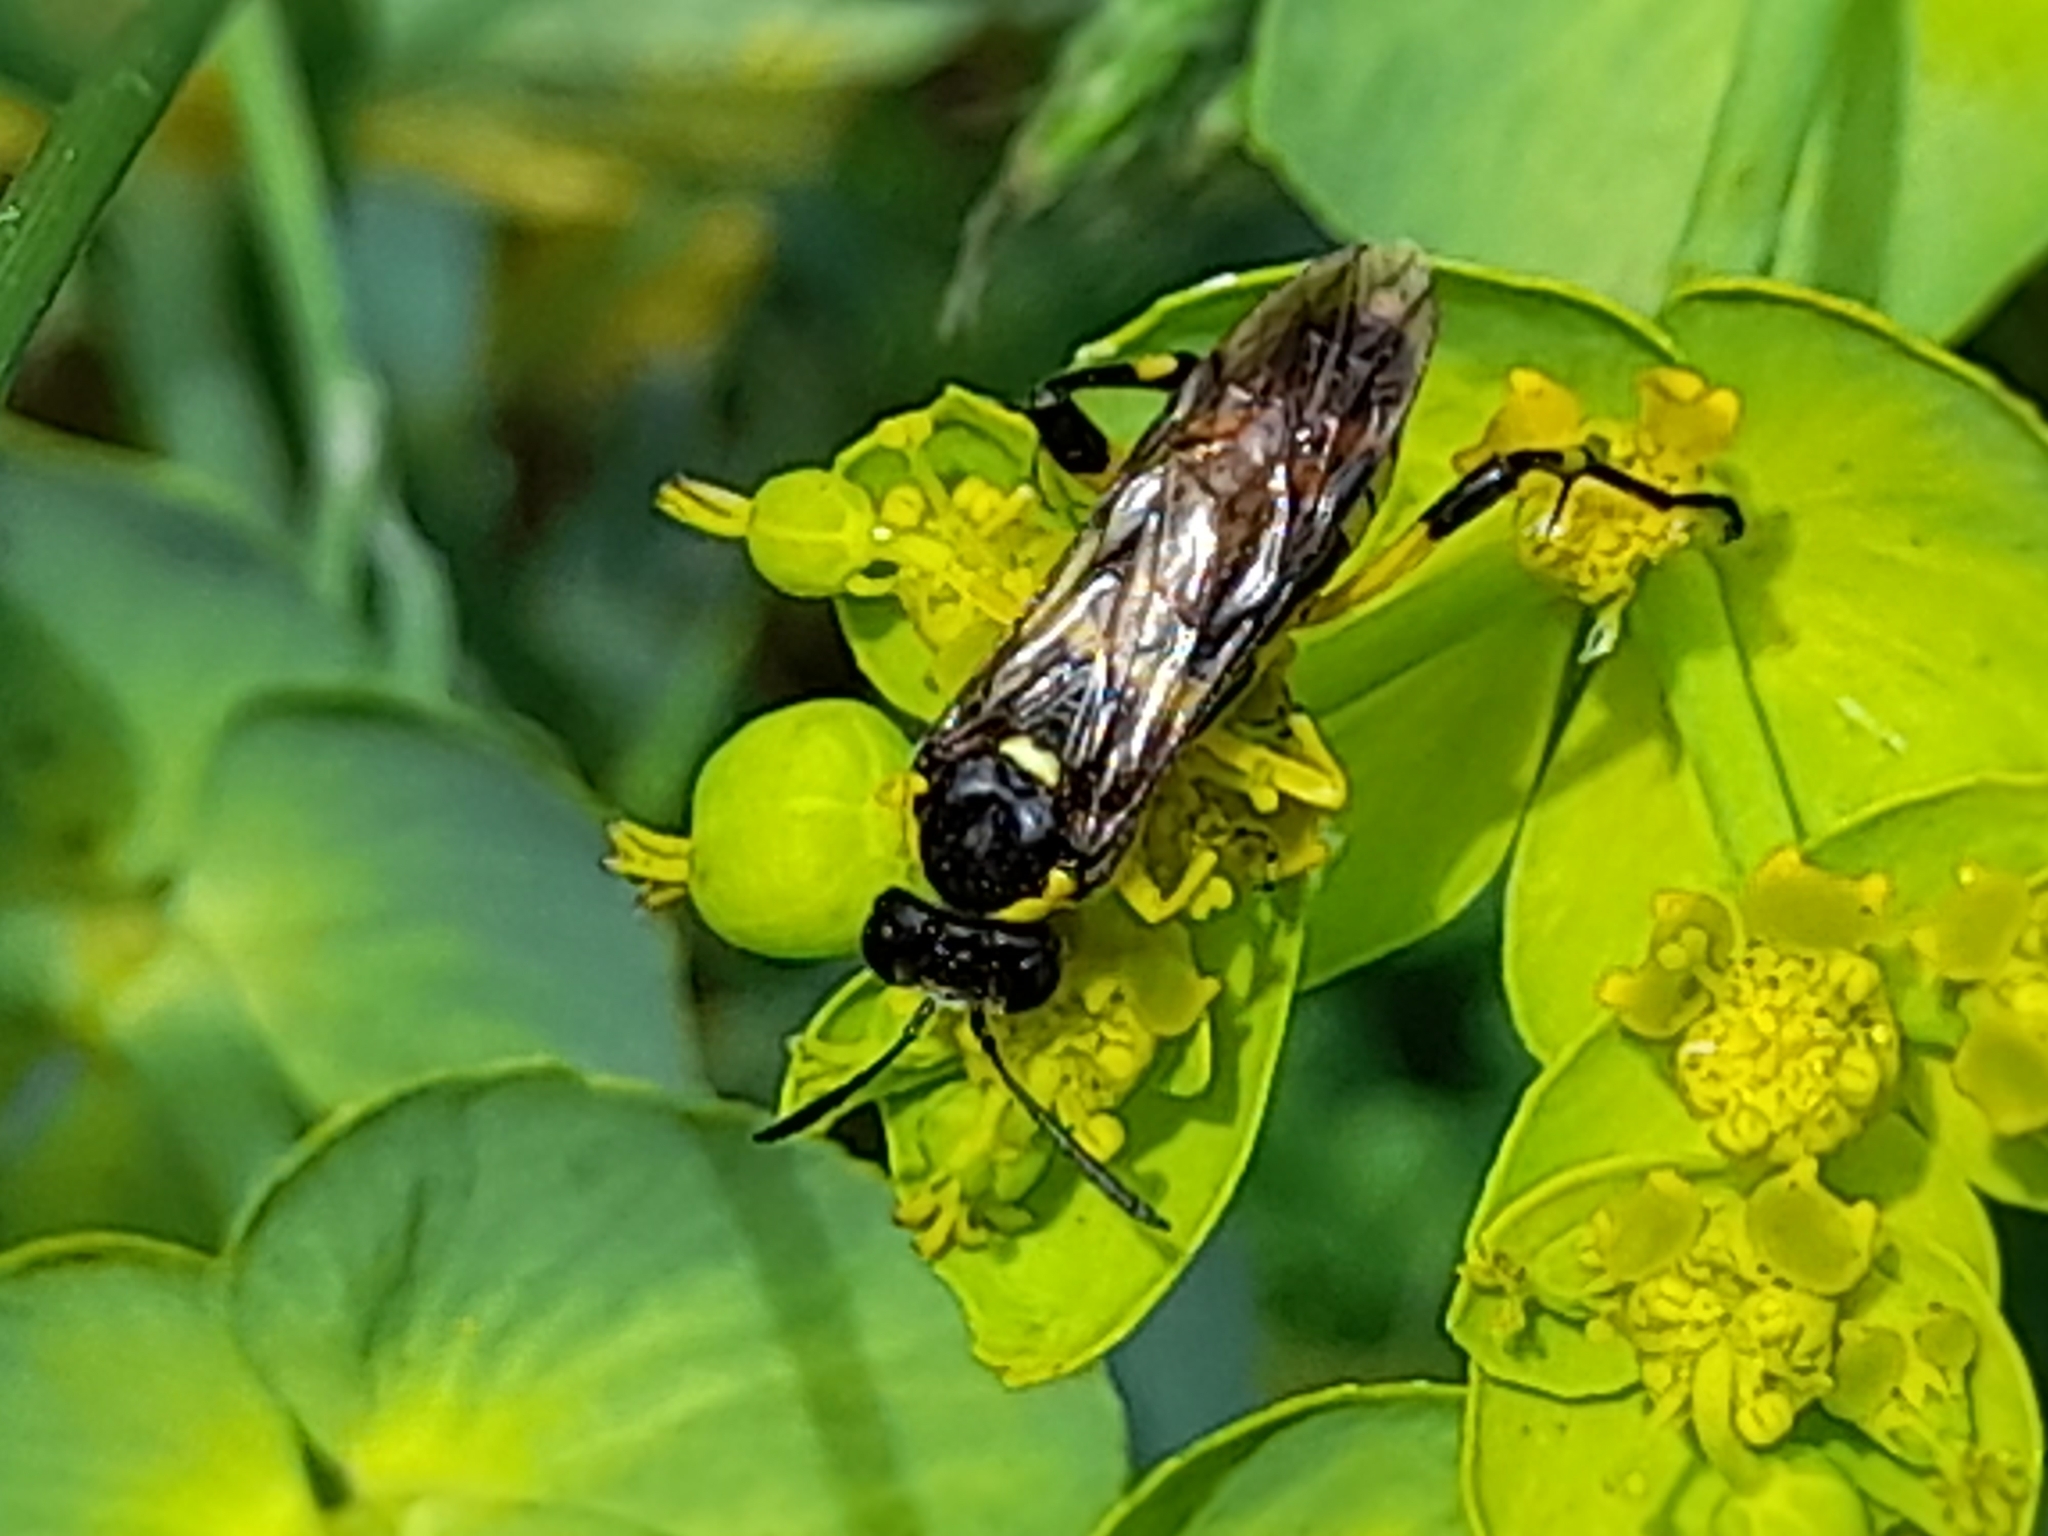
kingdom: Animalia
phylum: Arthropoda
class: Insecta
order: Hymenoptera
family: Tenthredinidae
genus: Macrophya
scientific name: Macrophya montana
